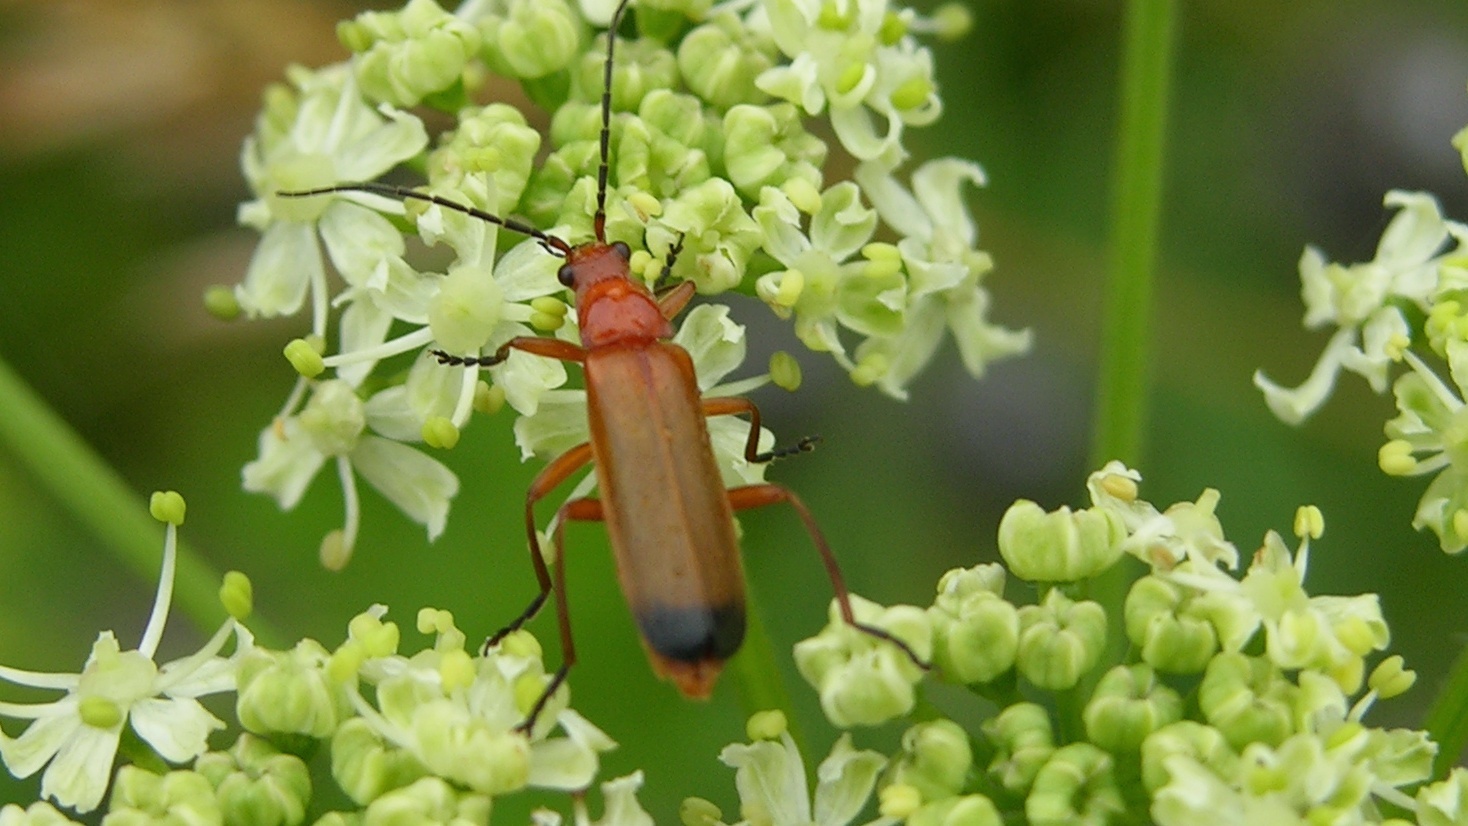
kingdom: Animalia
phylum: Arthropoda
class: Insecta
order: Coleoptera
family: Cantharidae
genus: Rhagonycha
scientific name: Rhagonycha fulva
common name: Common red soldier beetle
